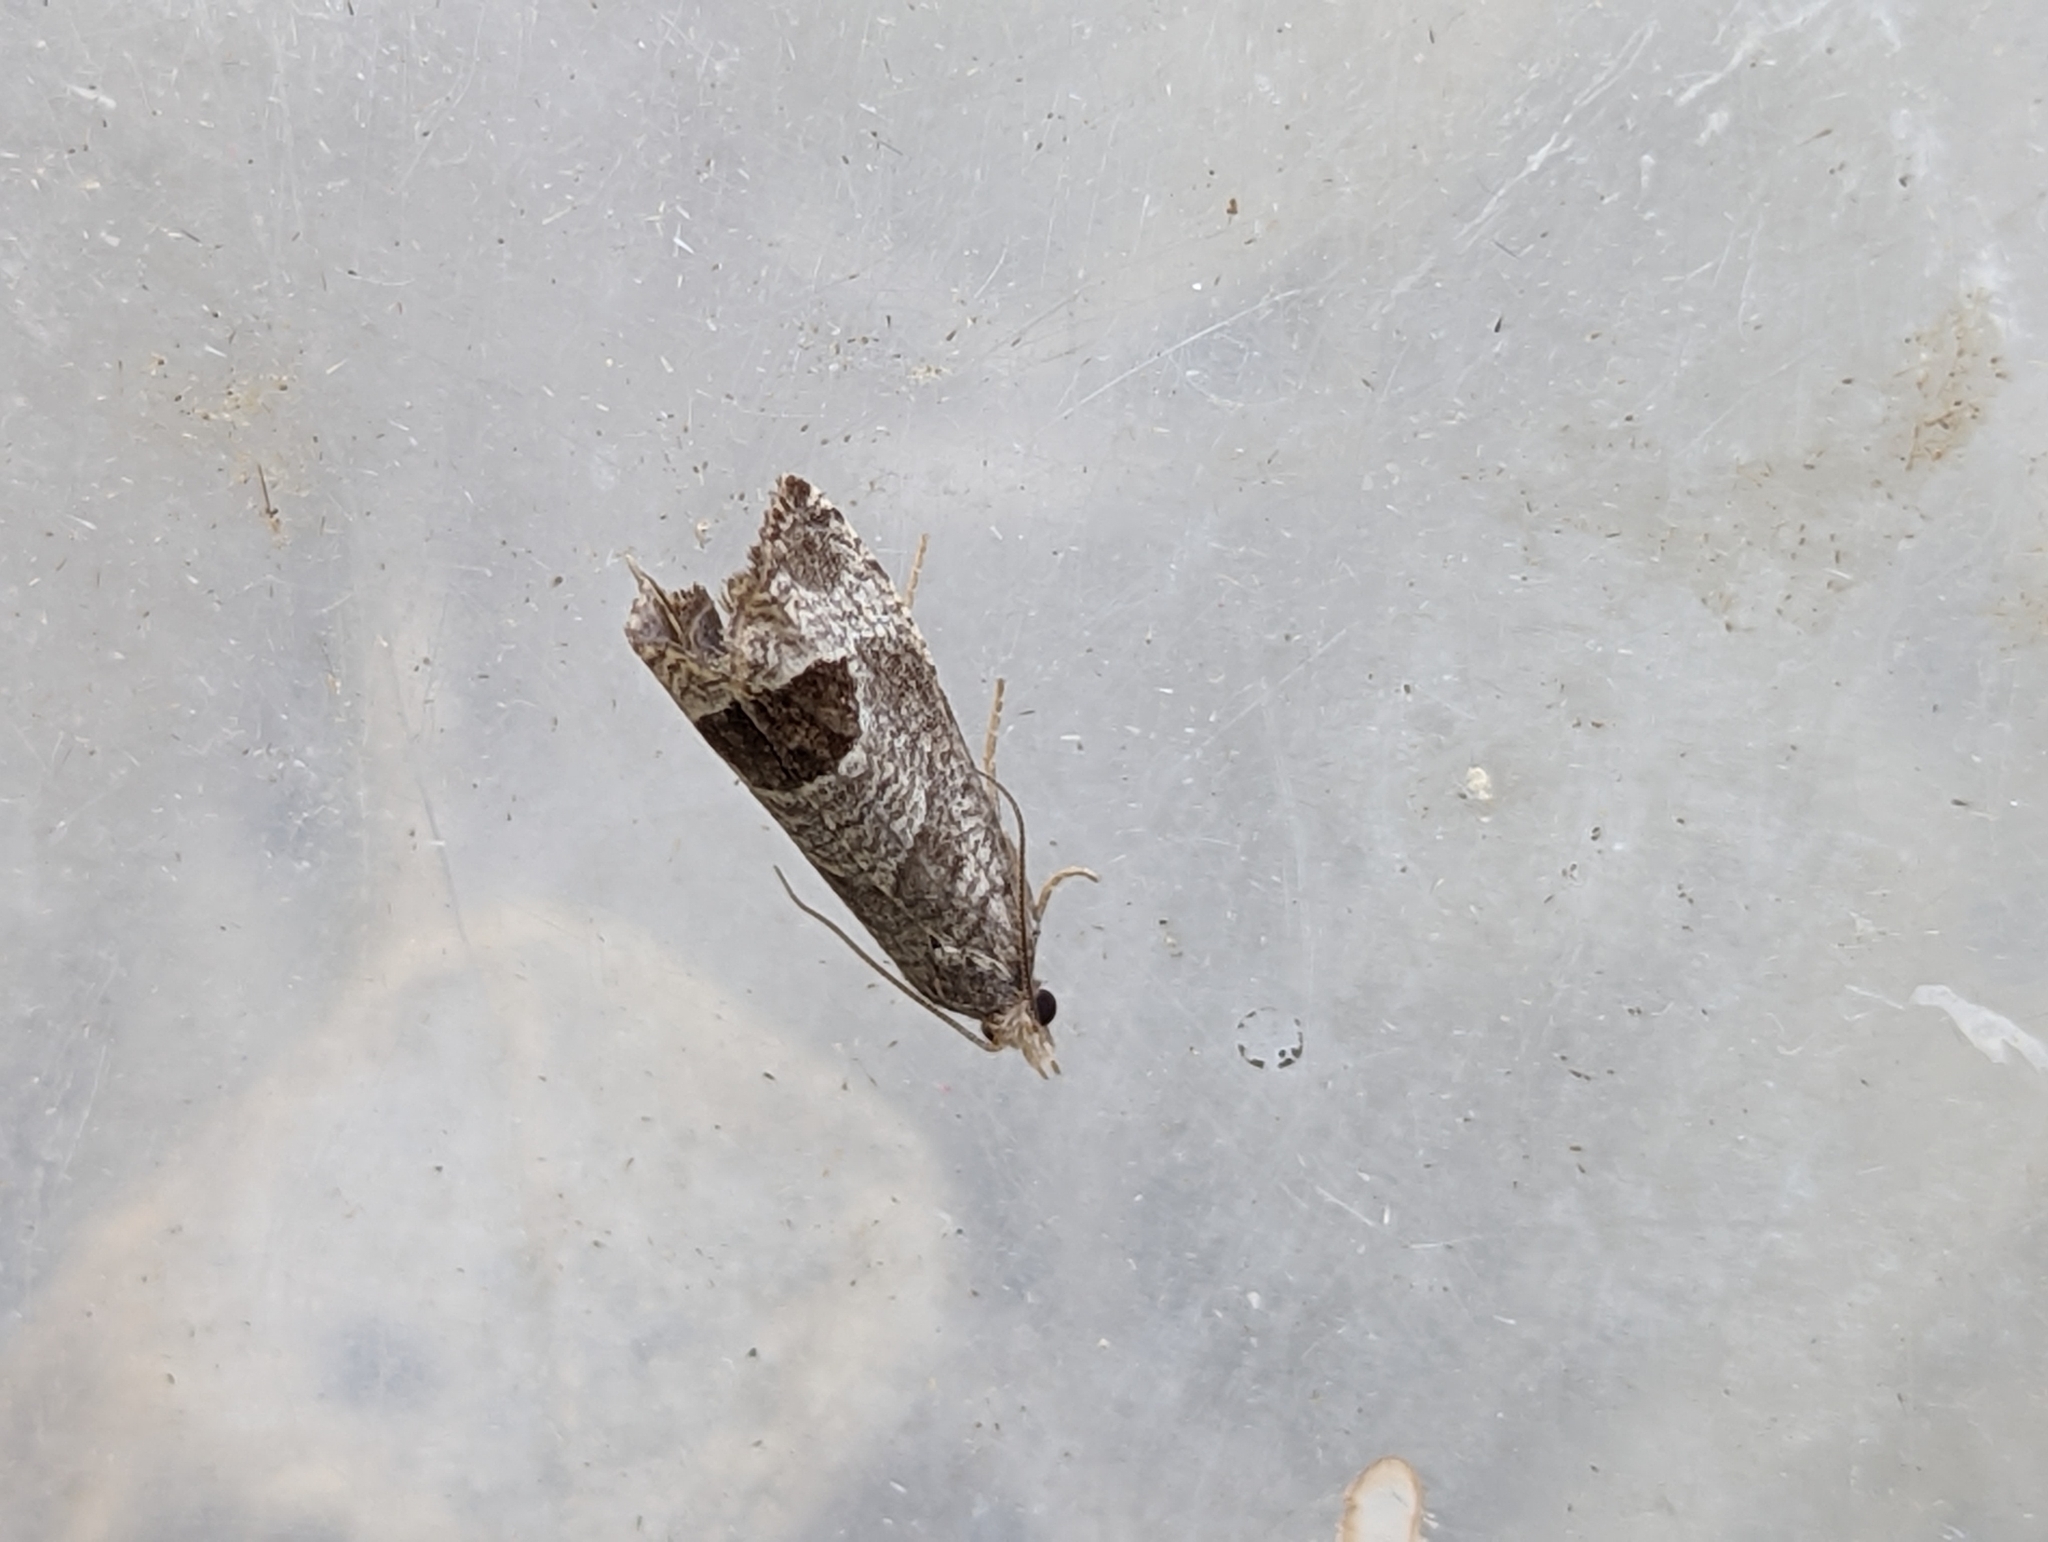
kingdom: Animalia
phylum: Arthropoda
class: Insecta
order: Lepidoptera
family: Tortricidae
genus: Notocelia
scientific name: Notocelia uddmanniana
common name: Bramble shoot moth
